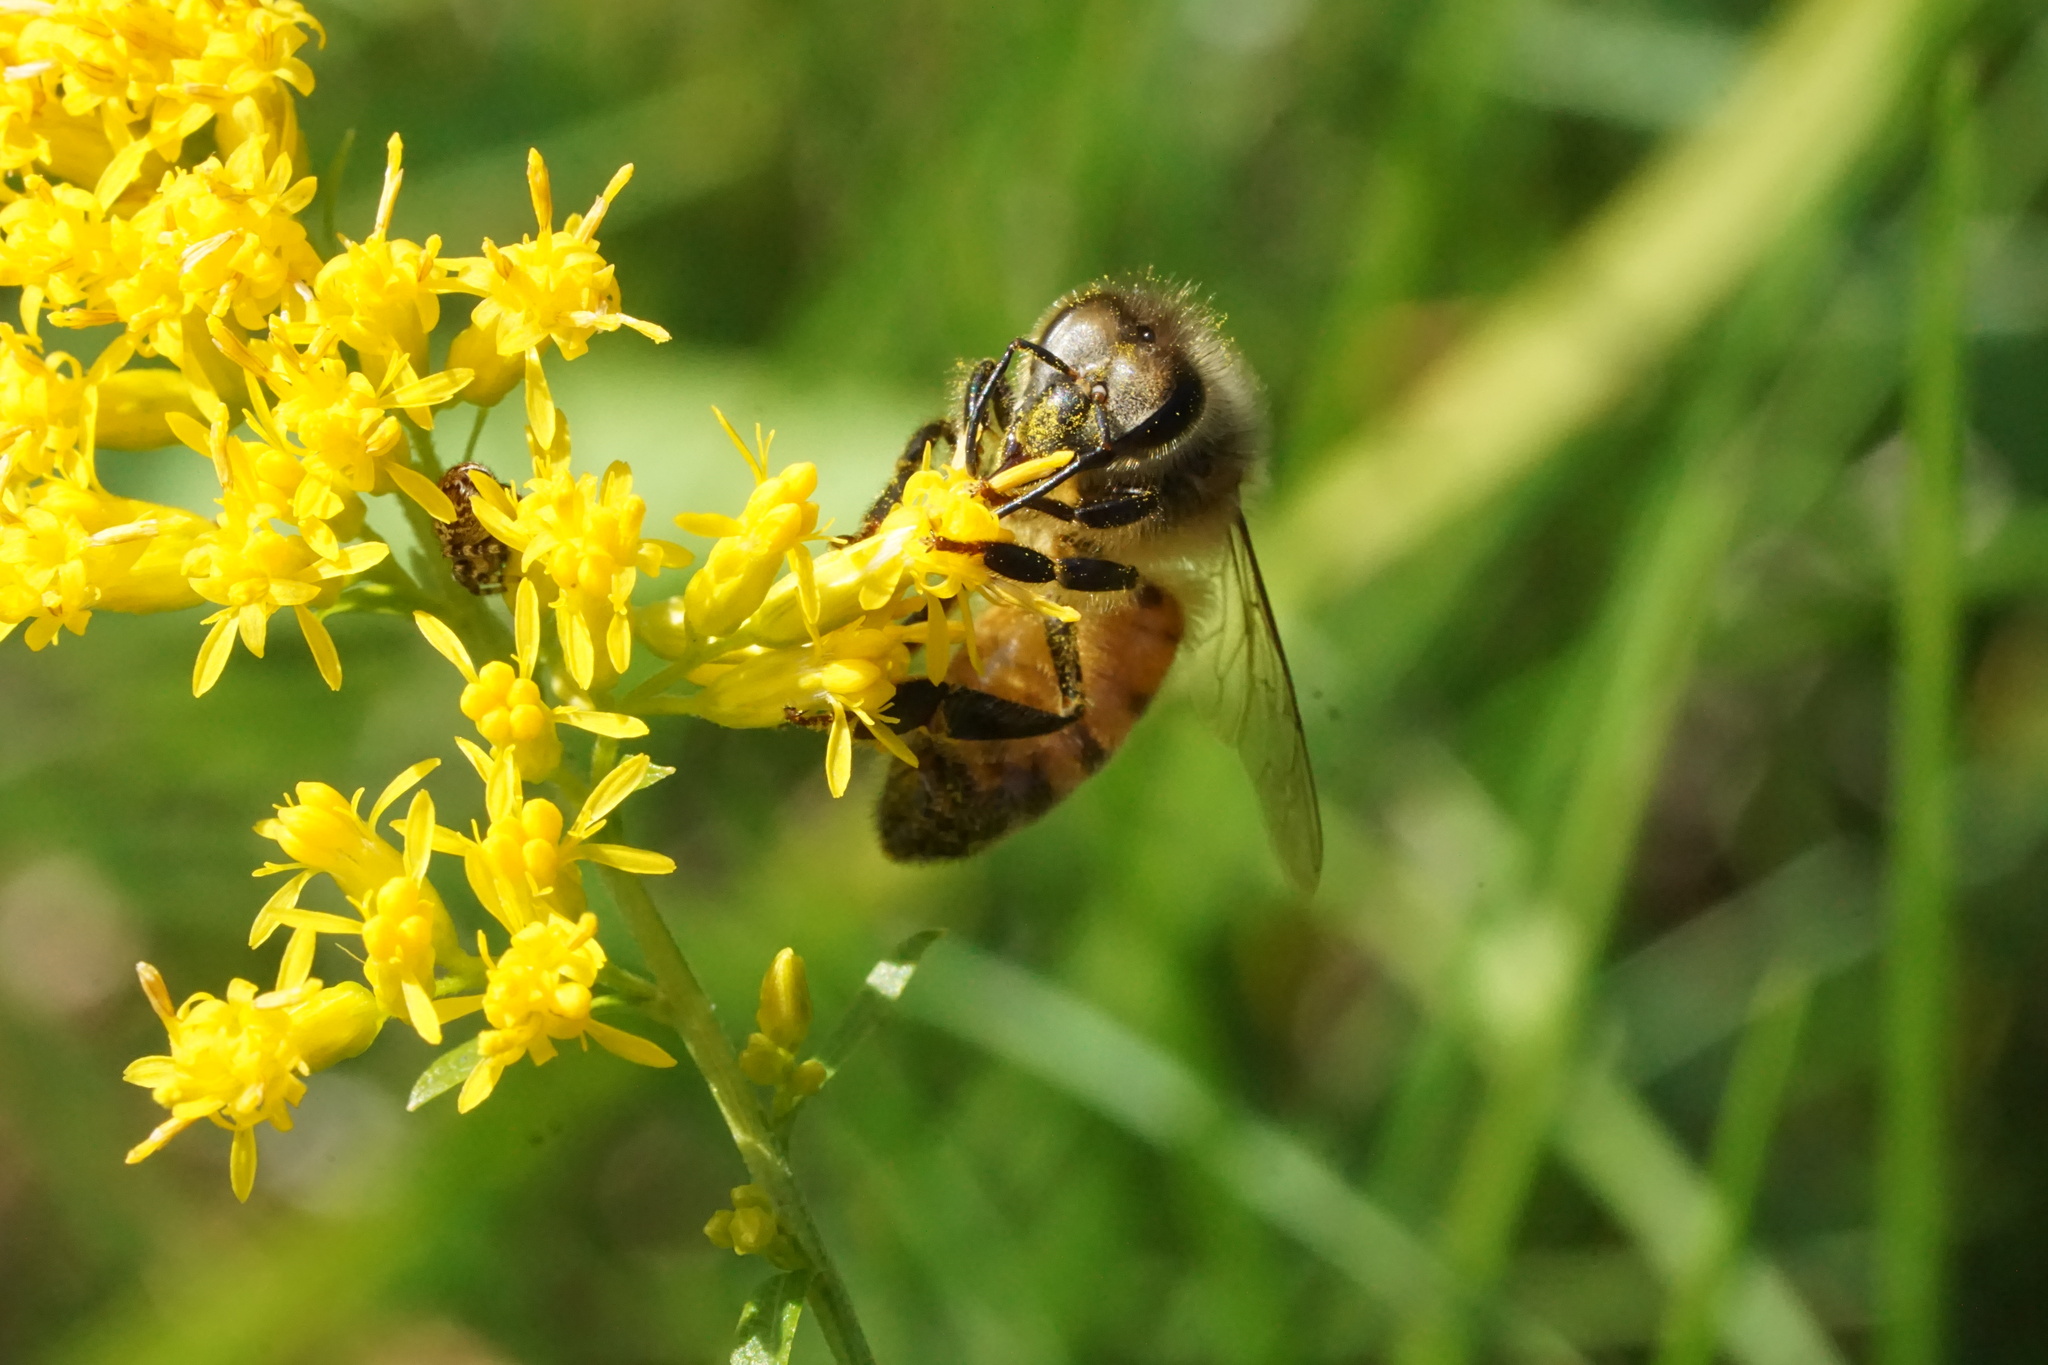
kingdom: Animalia
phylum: Arthropoda
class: Insecta
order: Hymenoptera
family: Apidae
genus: Apis
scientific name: Apis mellifera
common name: Honey bee
